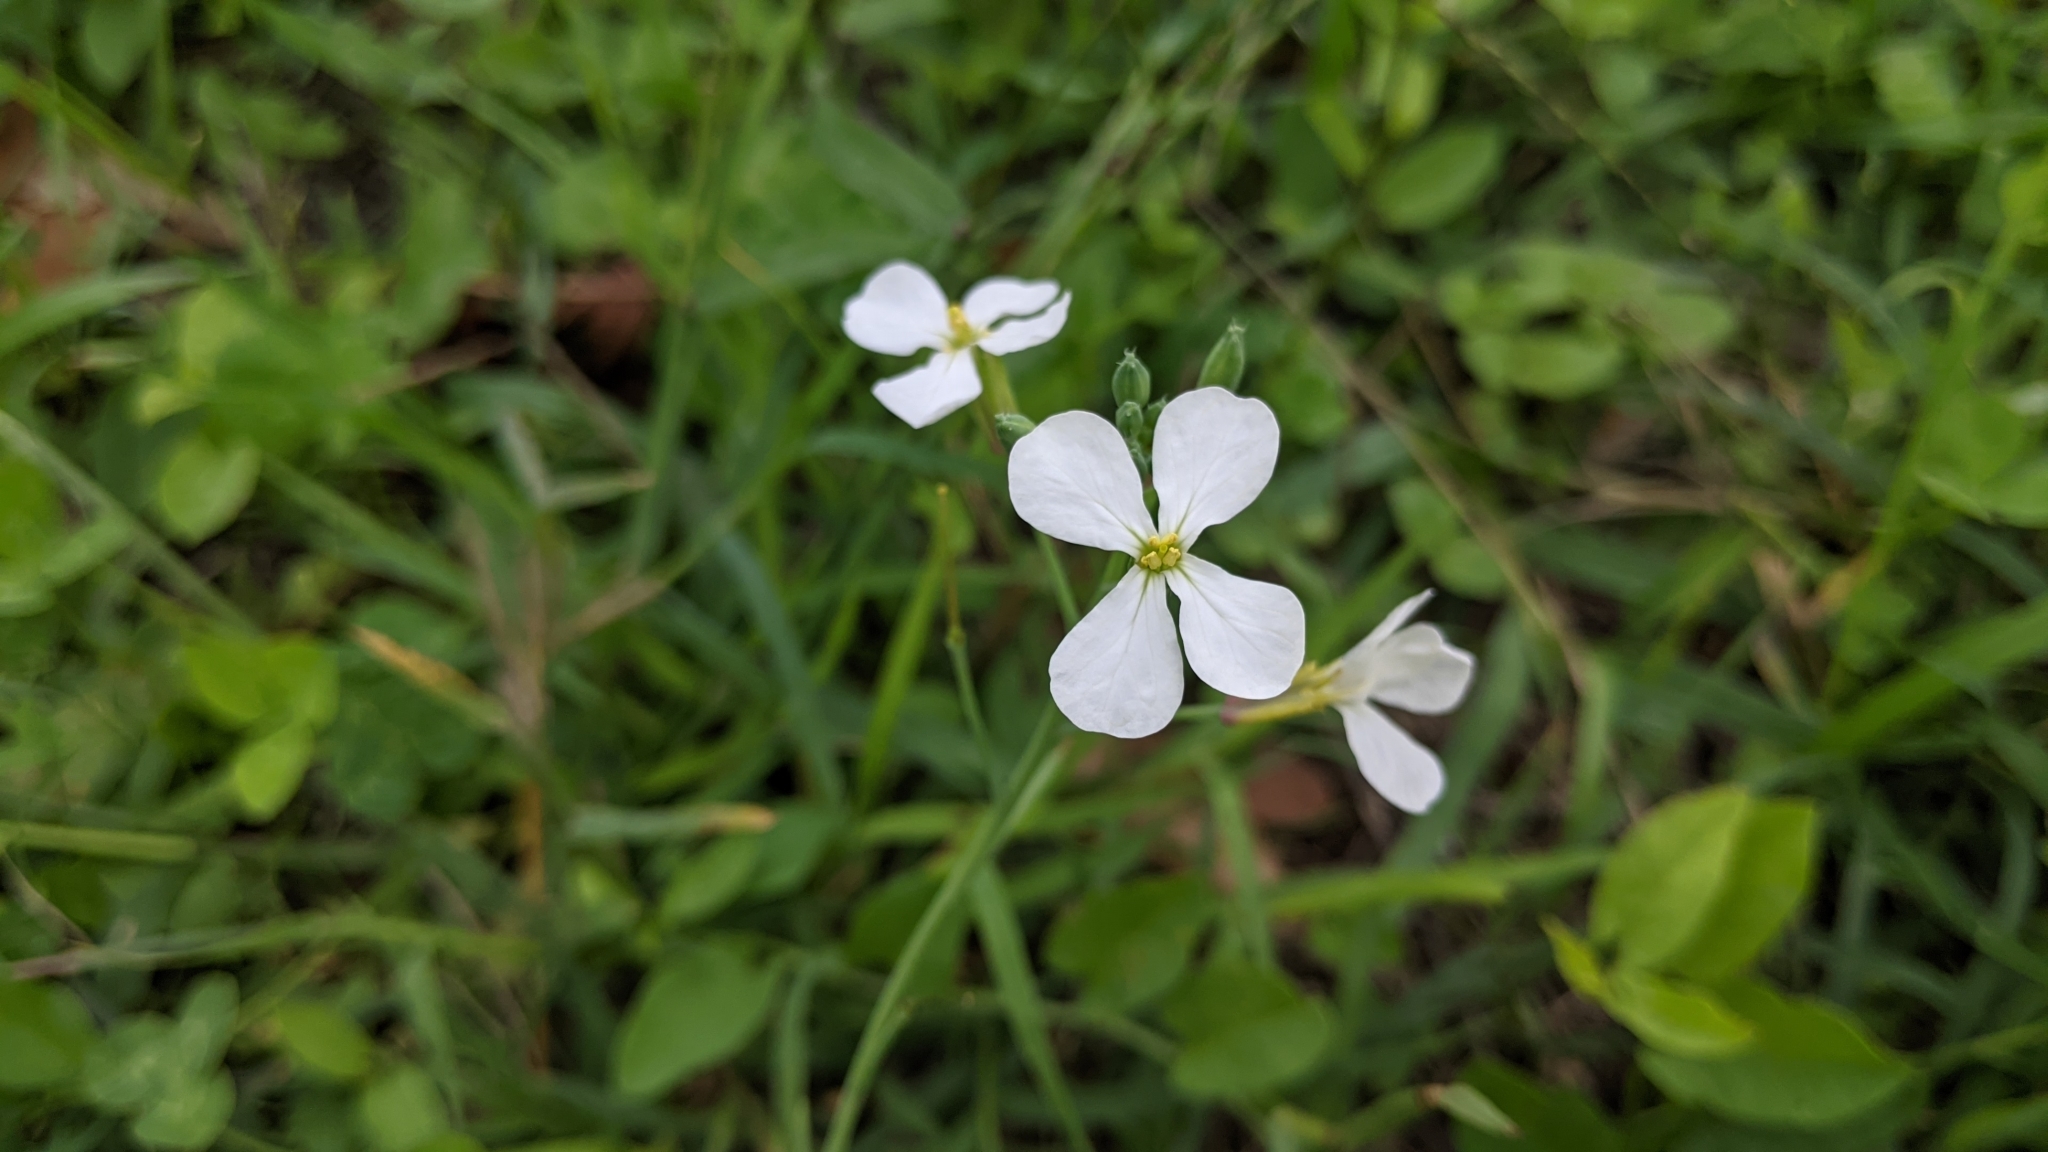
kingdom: Plantae
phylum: Tracheophyta
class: Magnoliopsida
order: Brassicales
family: Brassicaceae
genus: Raphanus
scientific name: Raphanus raphanistrum
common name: Wild radish
